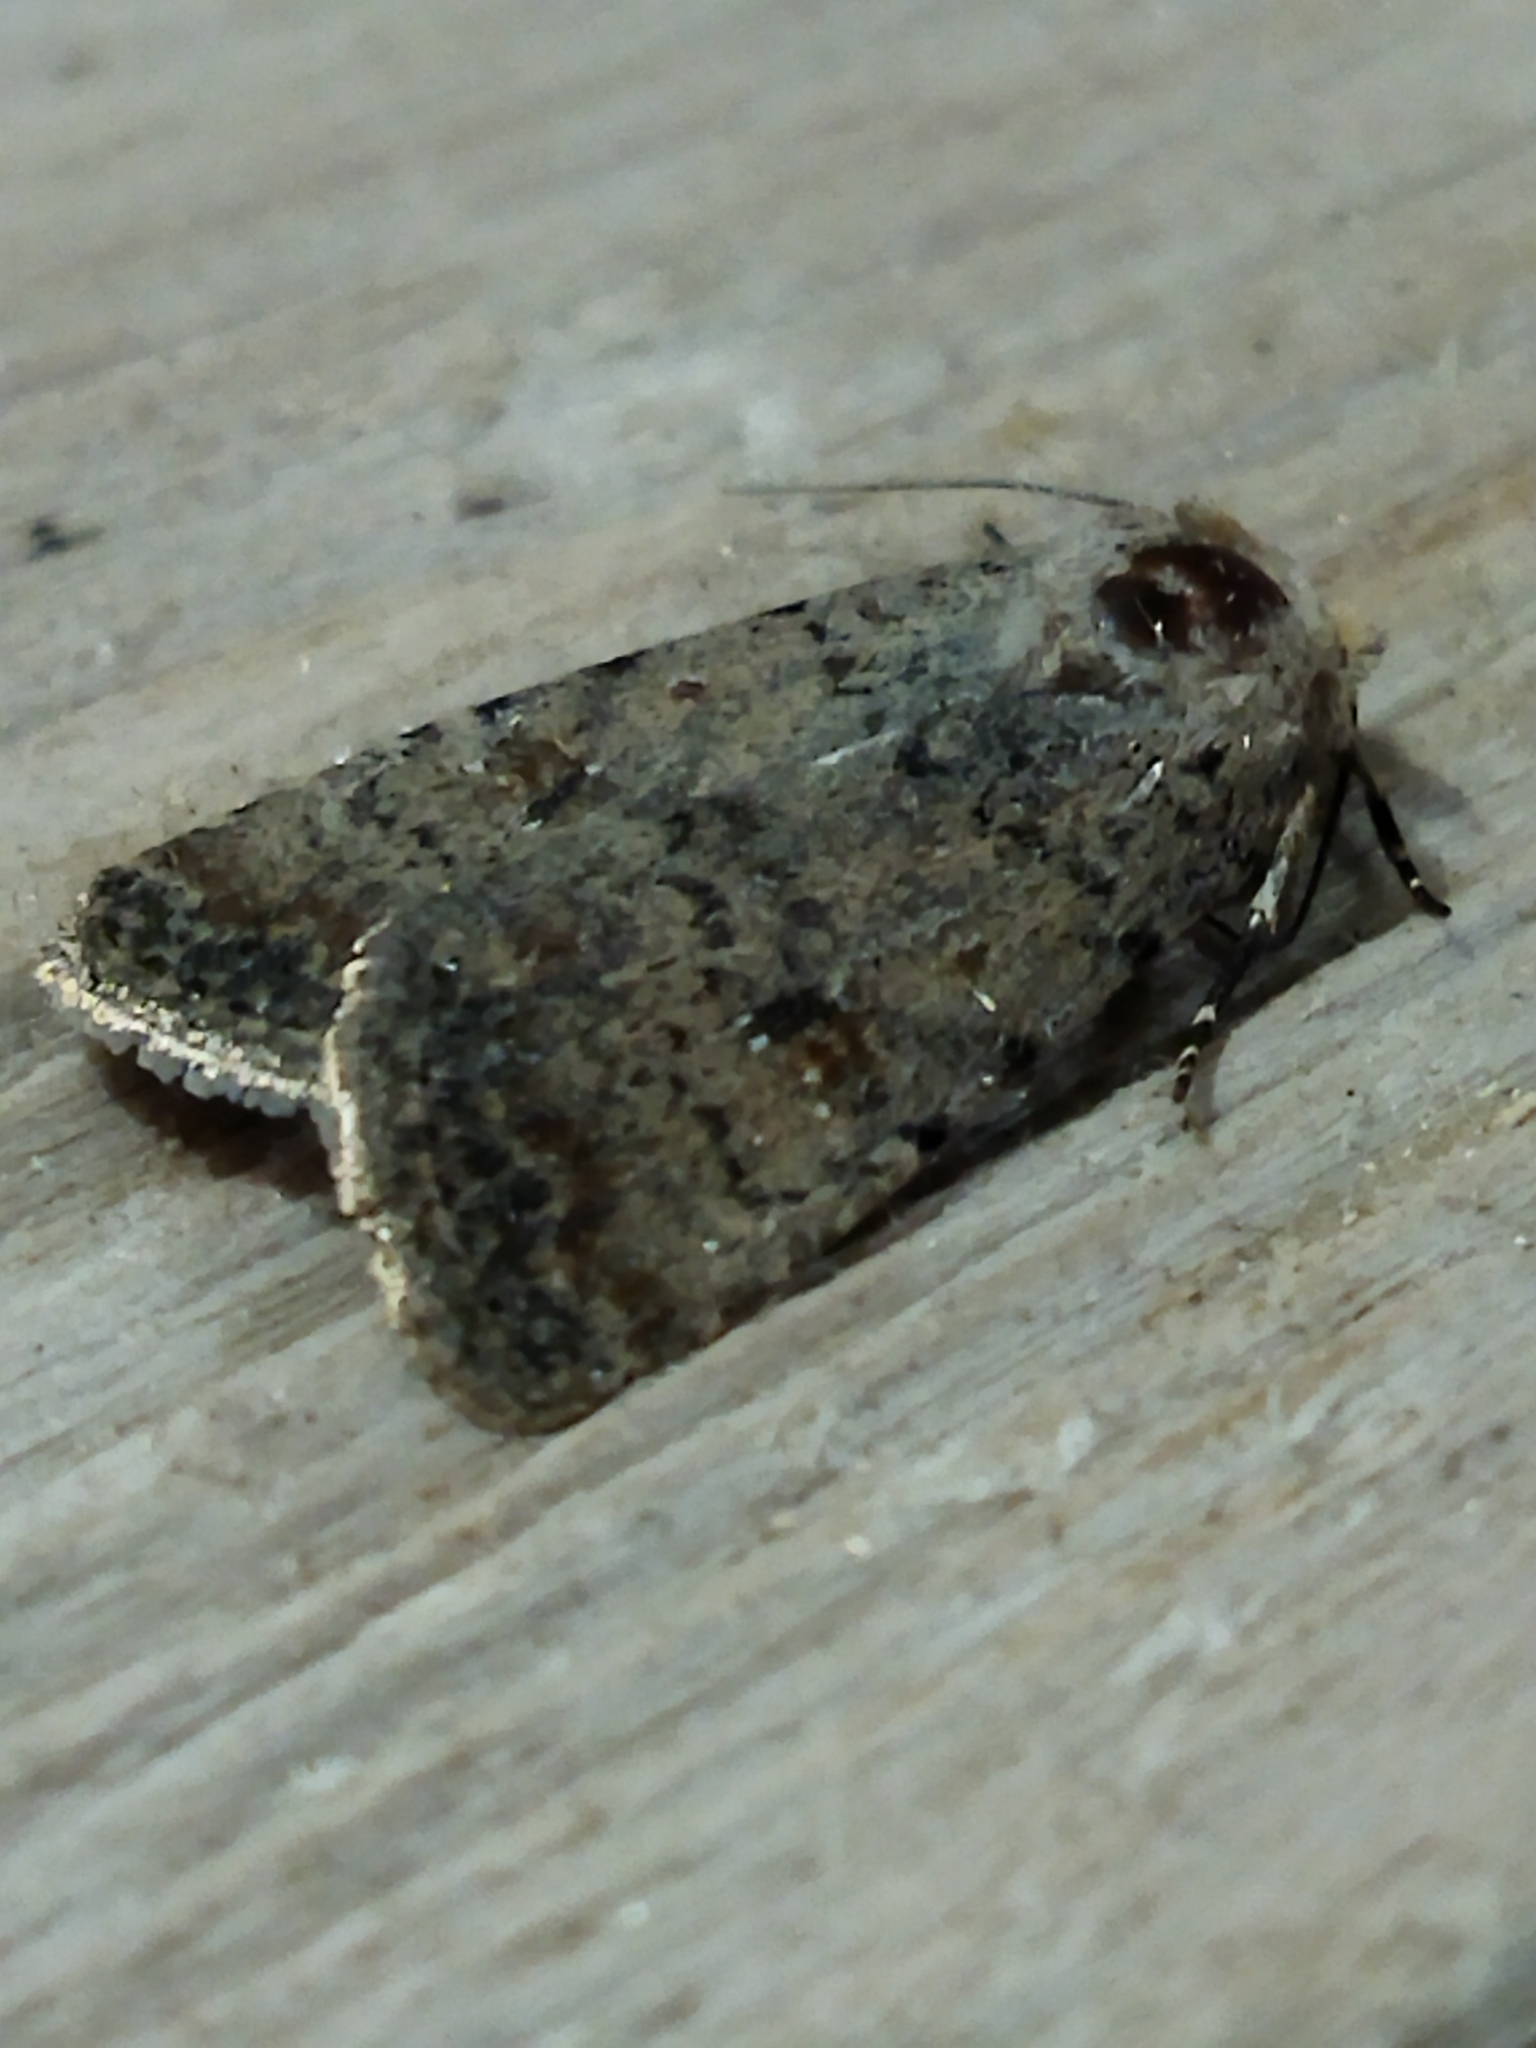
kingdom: Animalia
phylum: Arthropoda
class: Insecta
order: Lepidoptera
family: Noctuidae
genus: Caradrina
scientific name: Caradrina clavipalpis
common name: Pale mottled willow
